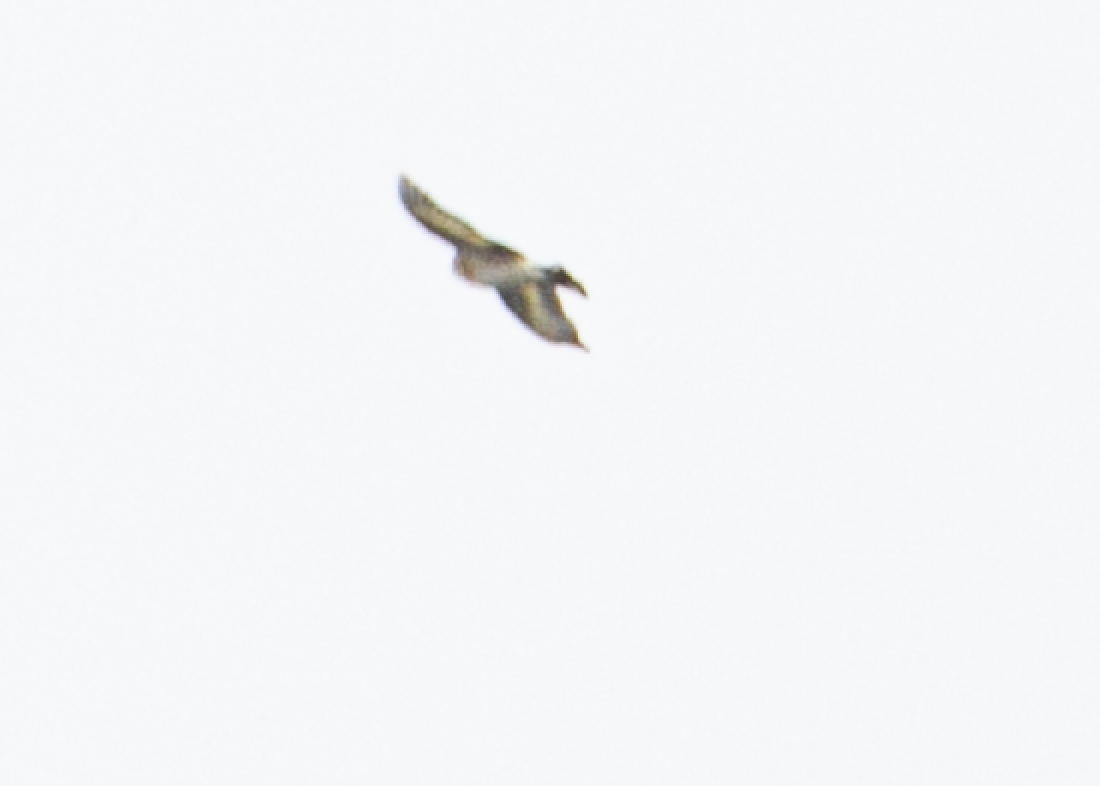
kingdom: Animalia
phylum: Chordata
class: Aves
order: Passeriformes
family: Fringillidae
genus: Carduelis
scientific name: Carduelis carduelis
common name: European goldfinch
